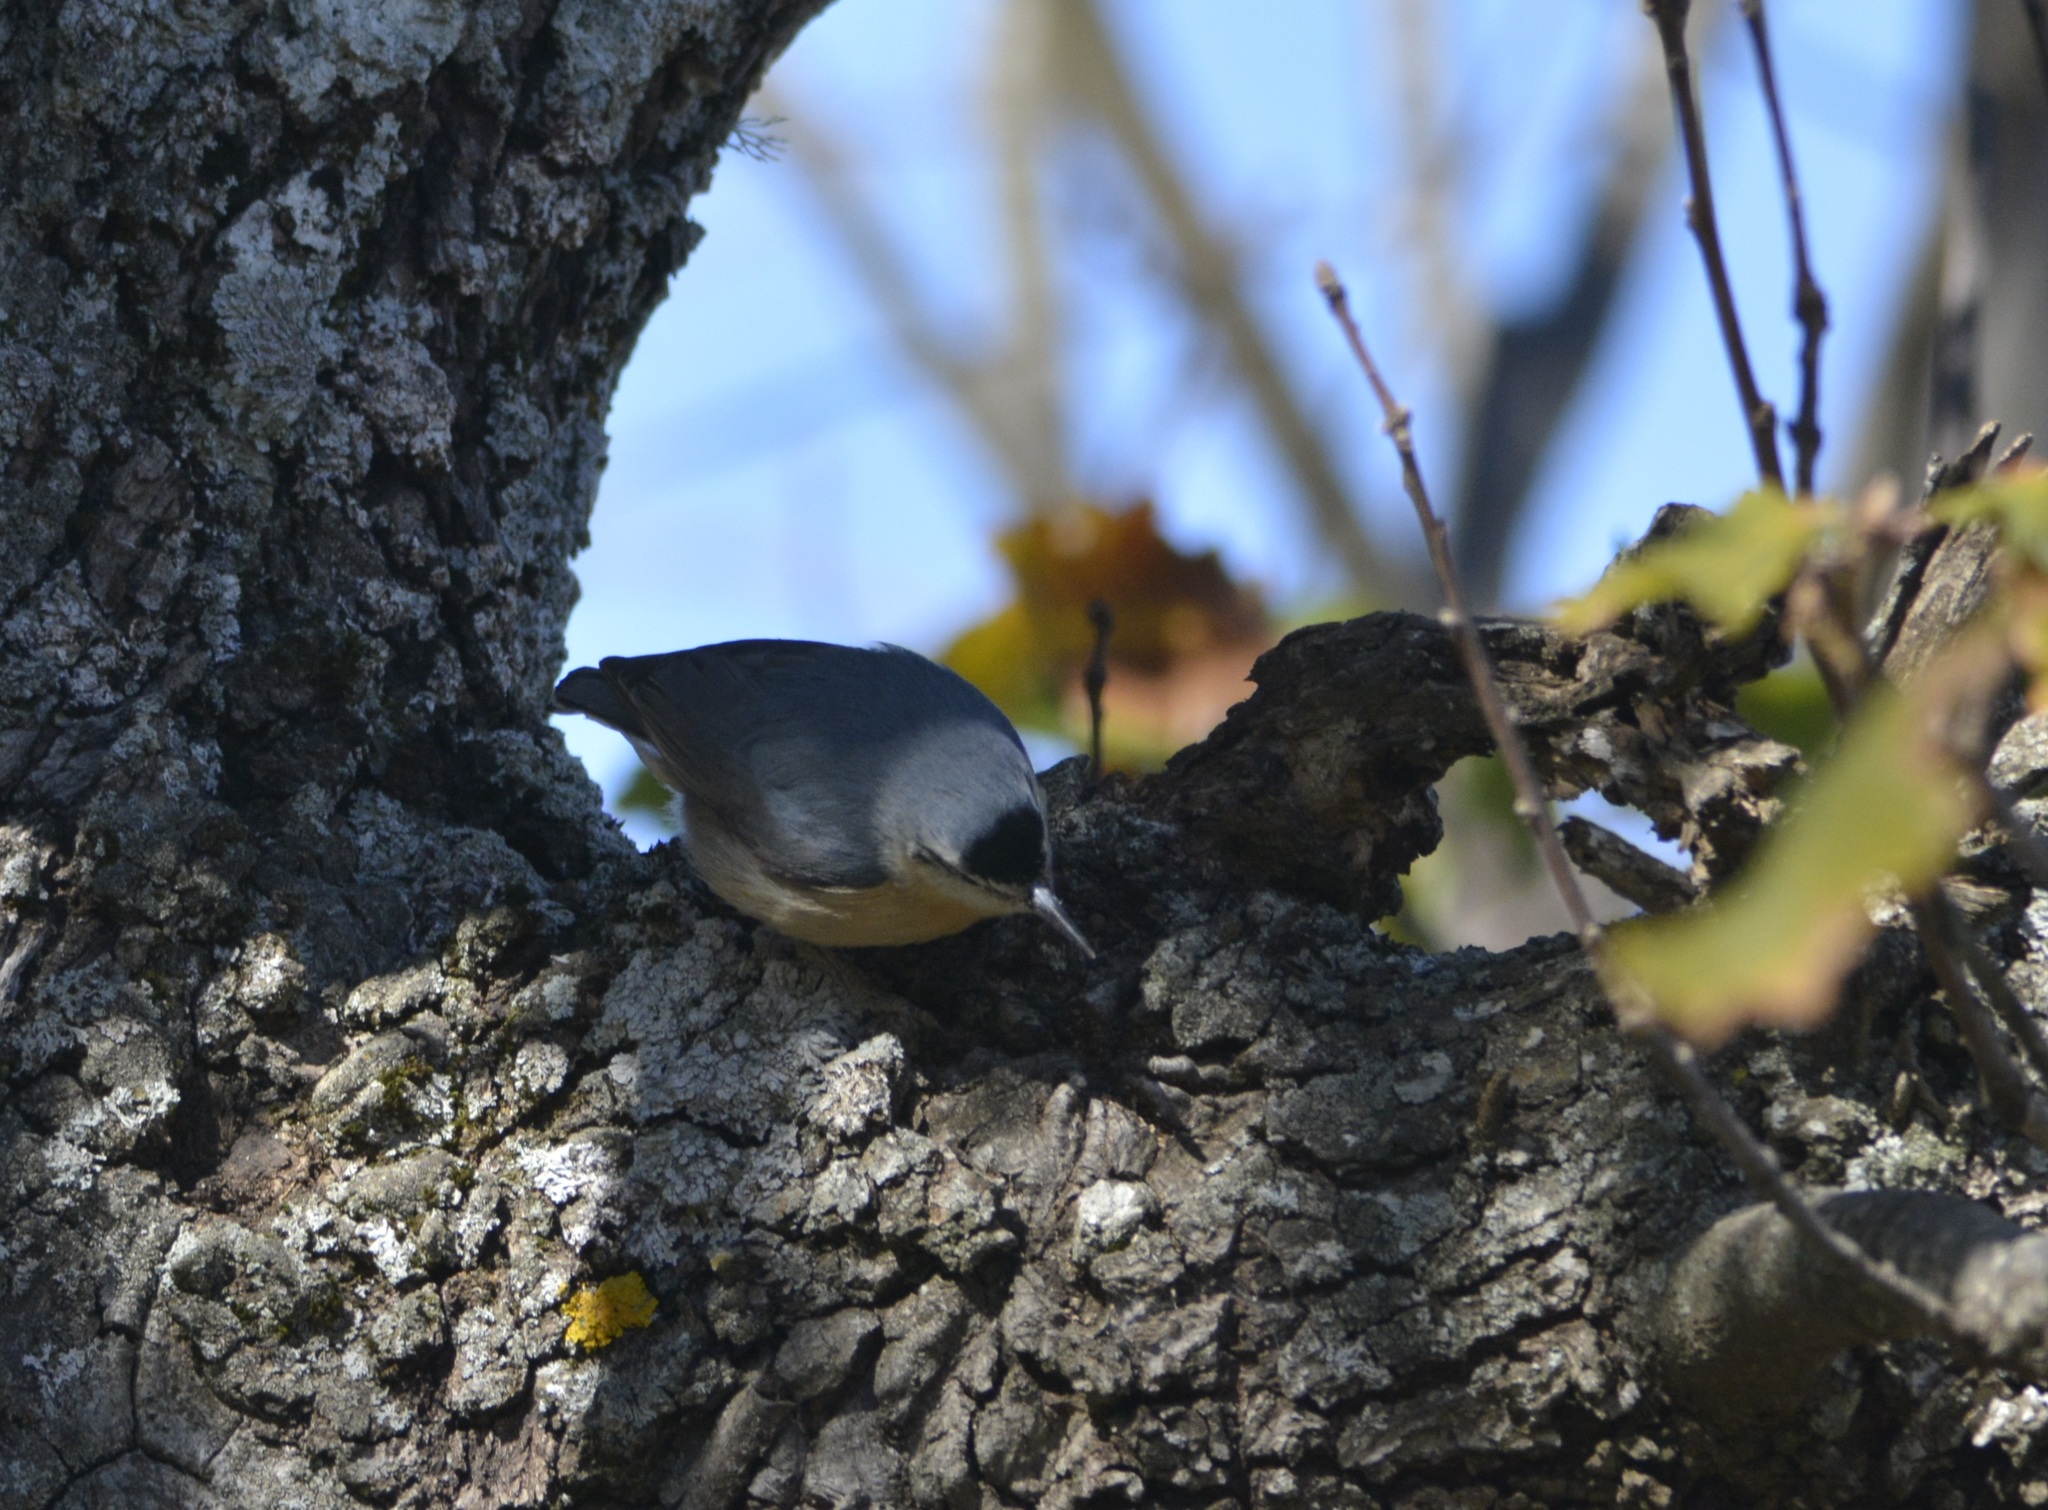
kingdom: Animalia
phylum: Chordata
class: Aves
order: Passeriformes
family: Sittidae
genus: Sitta
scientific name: Sitta ledanti
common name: Algerian nuthatch
